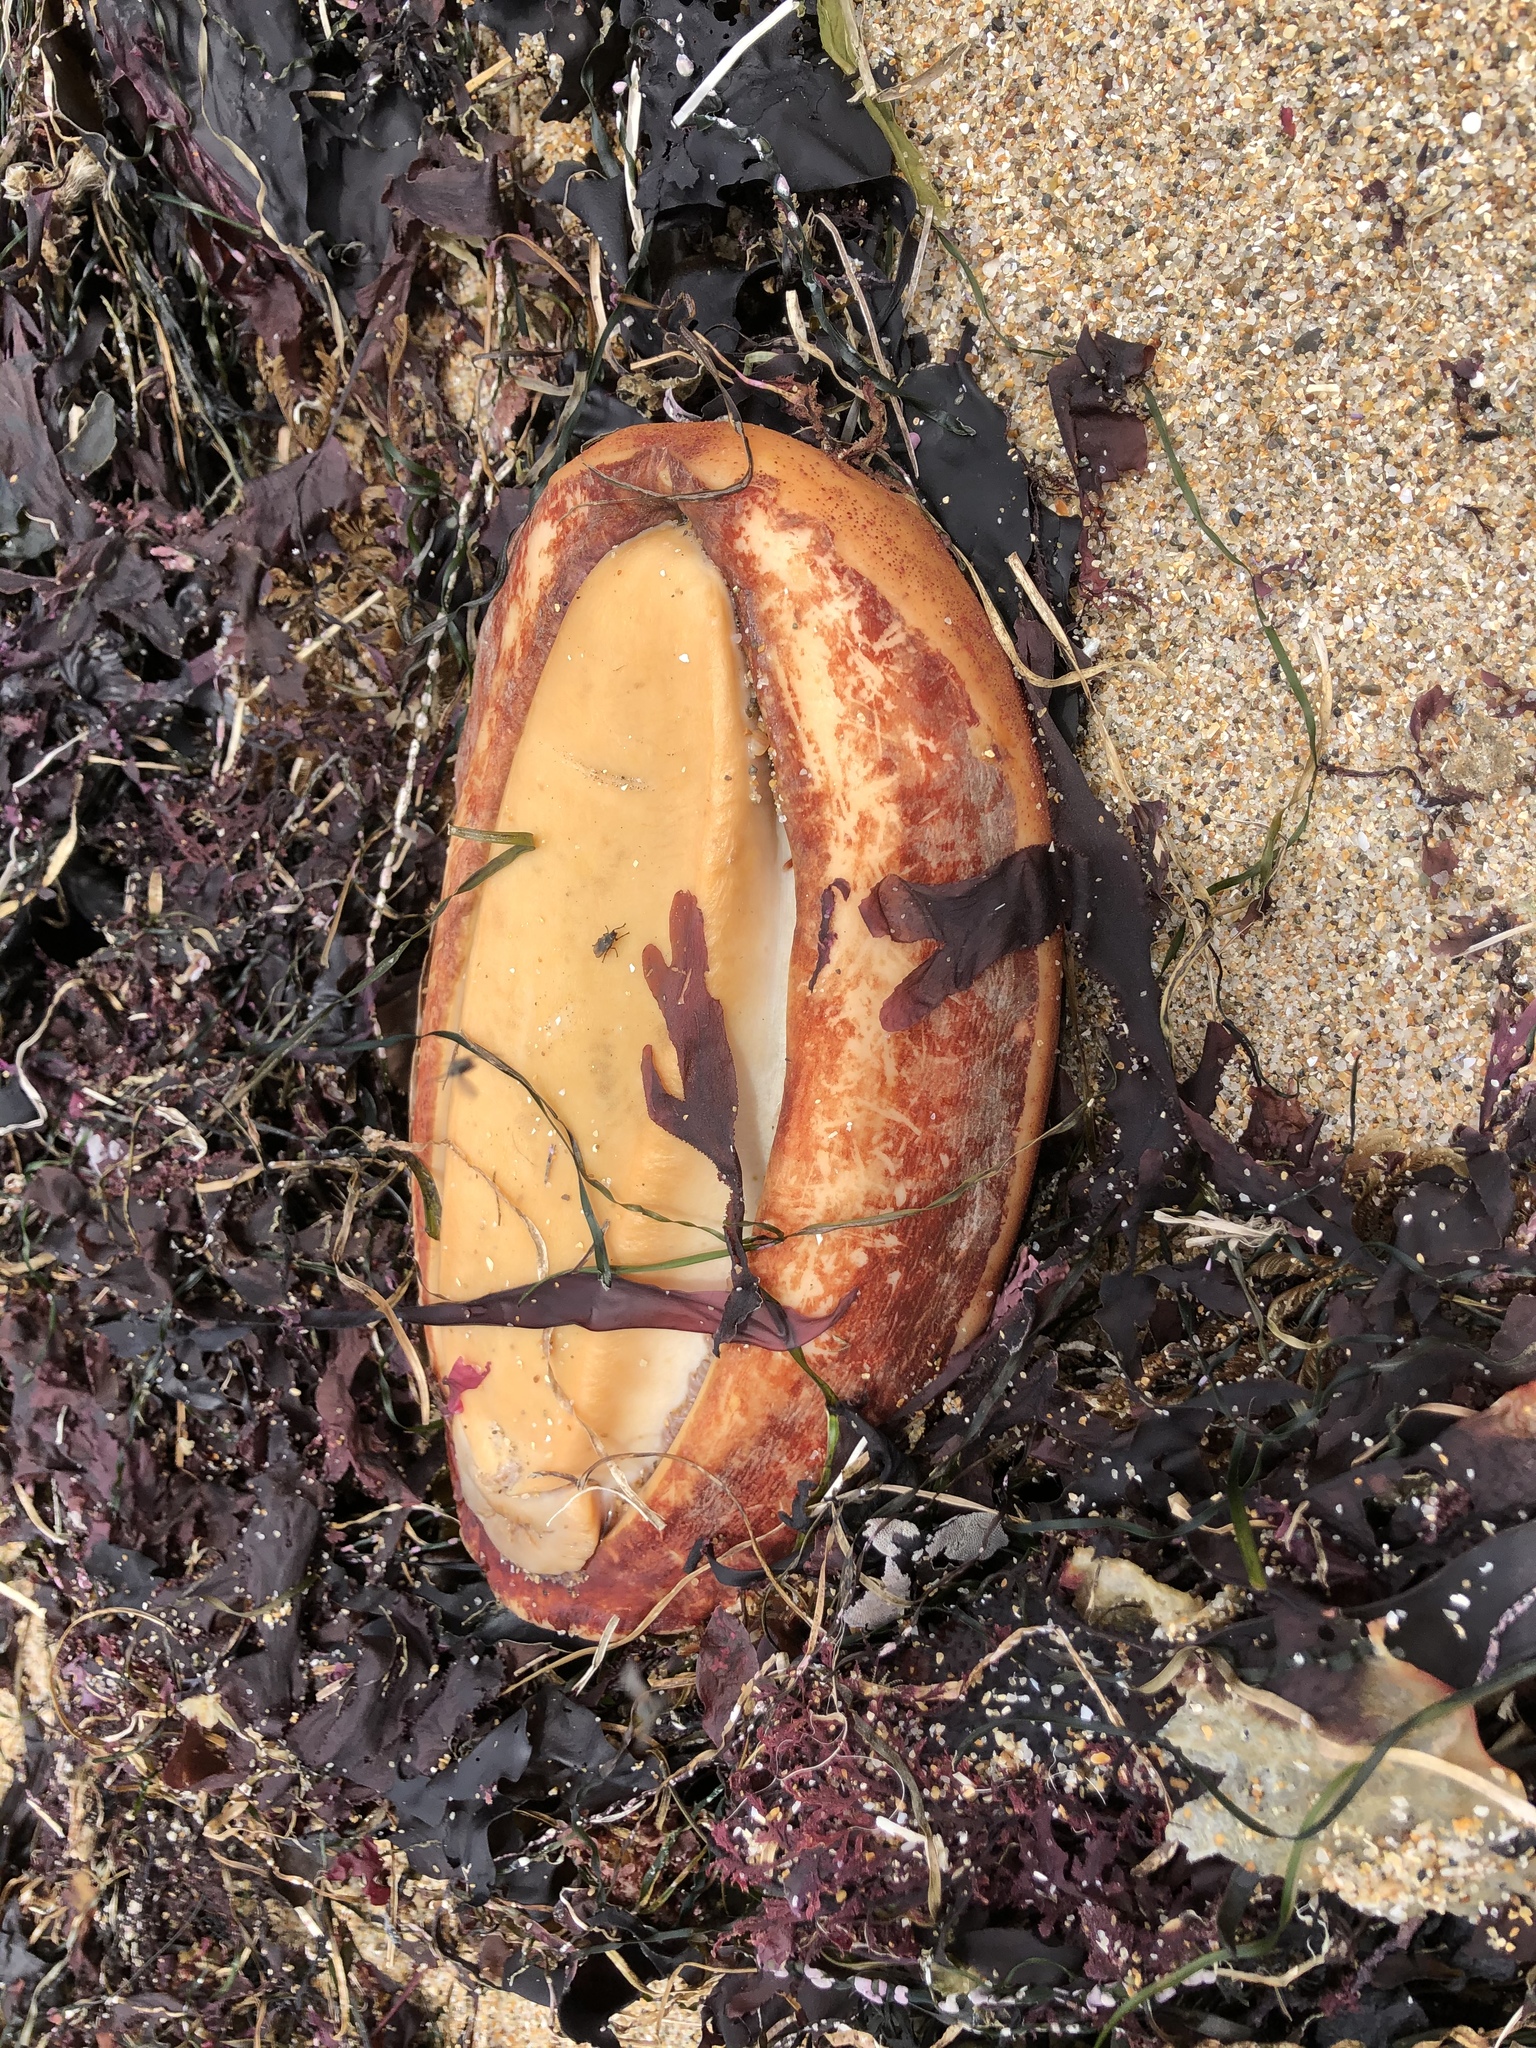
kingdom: Animalia
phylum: Mollusca
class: Polyplacophora
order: Chitonida
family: Acanthochitonidae
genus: Cryptochiton
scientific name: Cryptochiton stelleri
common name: Giant pacific chiton
